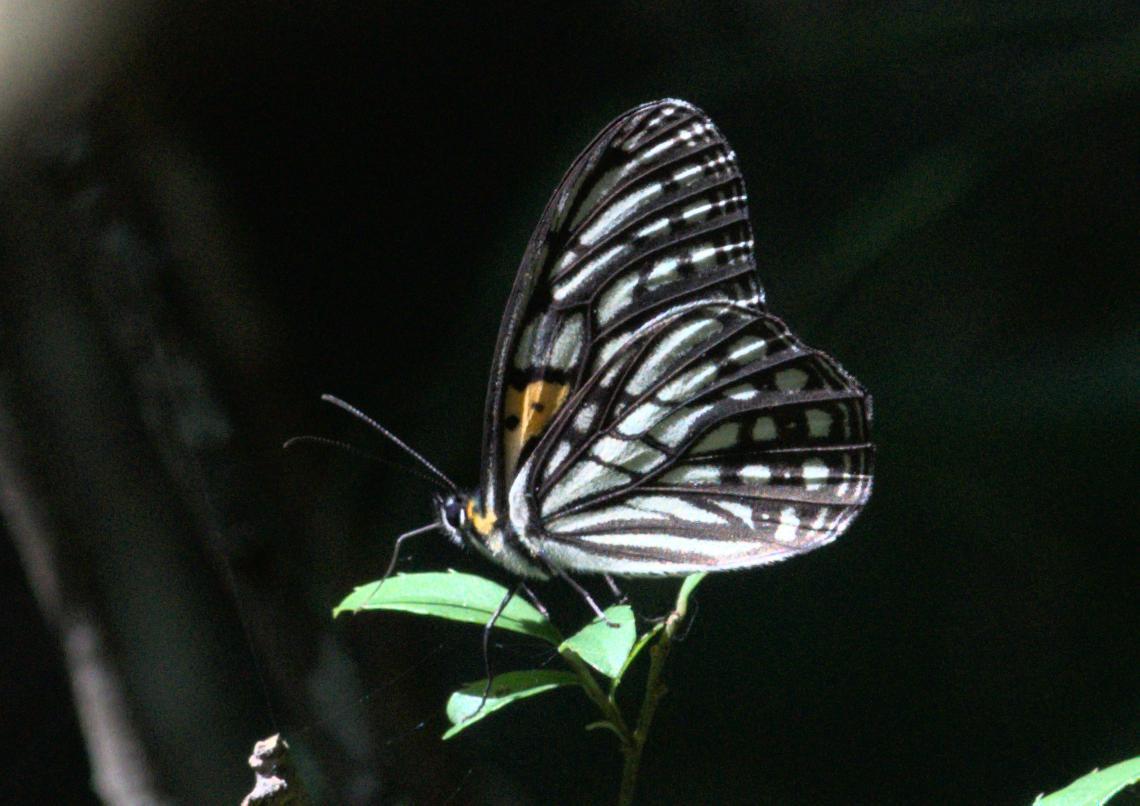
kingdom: Animalia
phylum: Arthropoda
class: Insecta
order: Lepidoptera
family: Nymphalidae
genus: Orinoma
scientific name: Orinoma damaris
